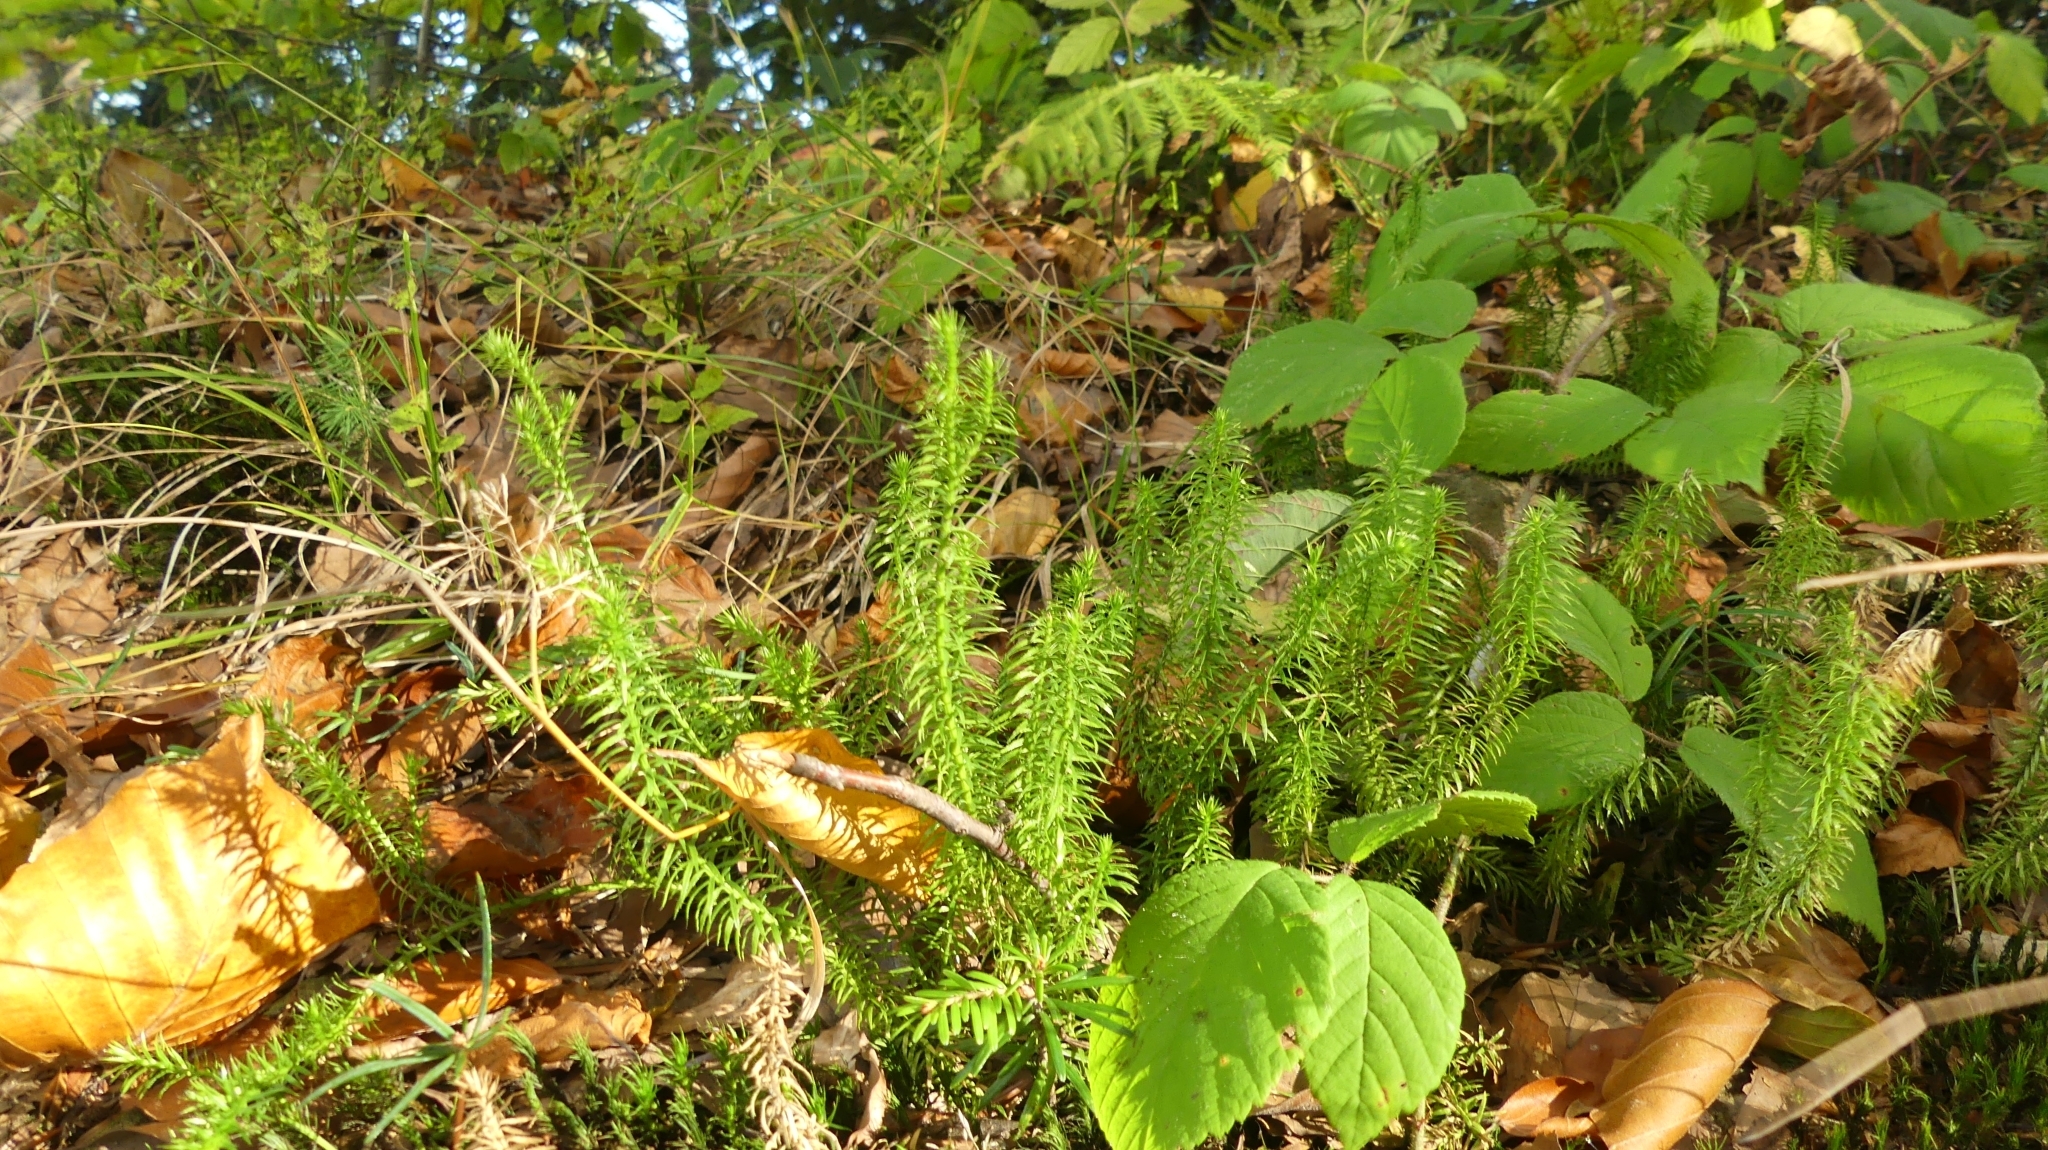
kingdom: Plantae
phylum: Tracheophyta
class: Lycopodiopsida
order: Lycopodiales
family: Lycopodiaceae
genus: Spinulum
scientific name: Spinulum annotinum
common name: Interrupted club-moss
